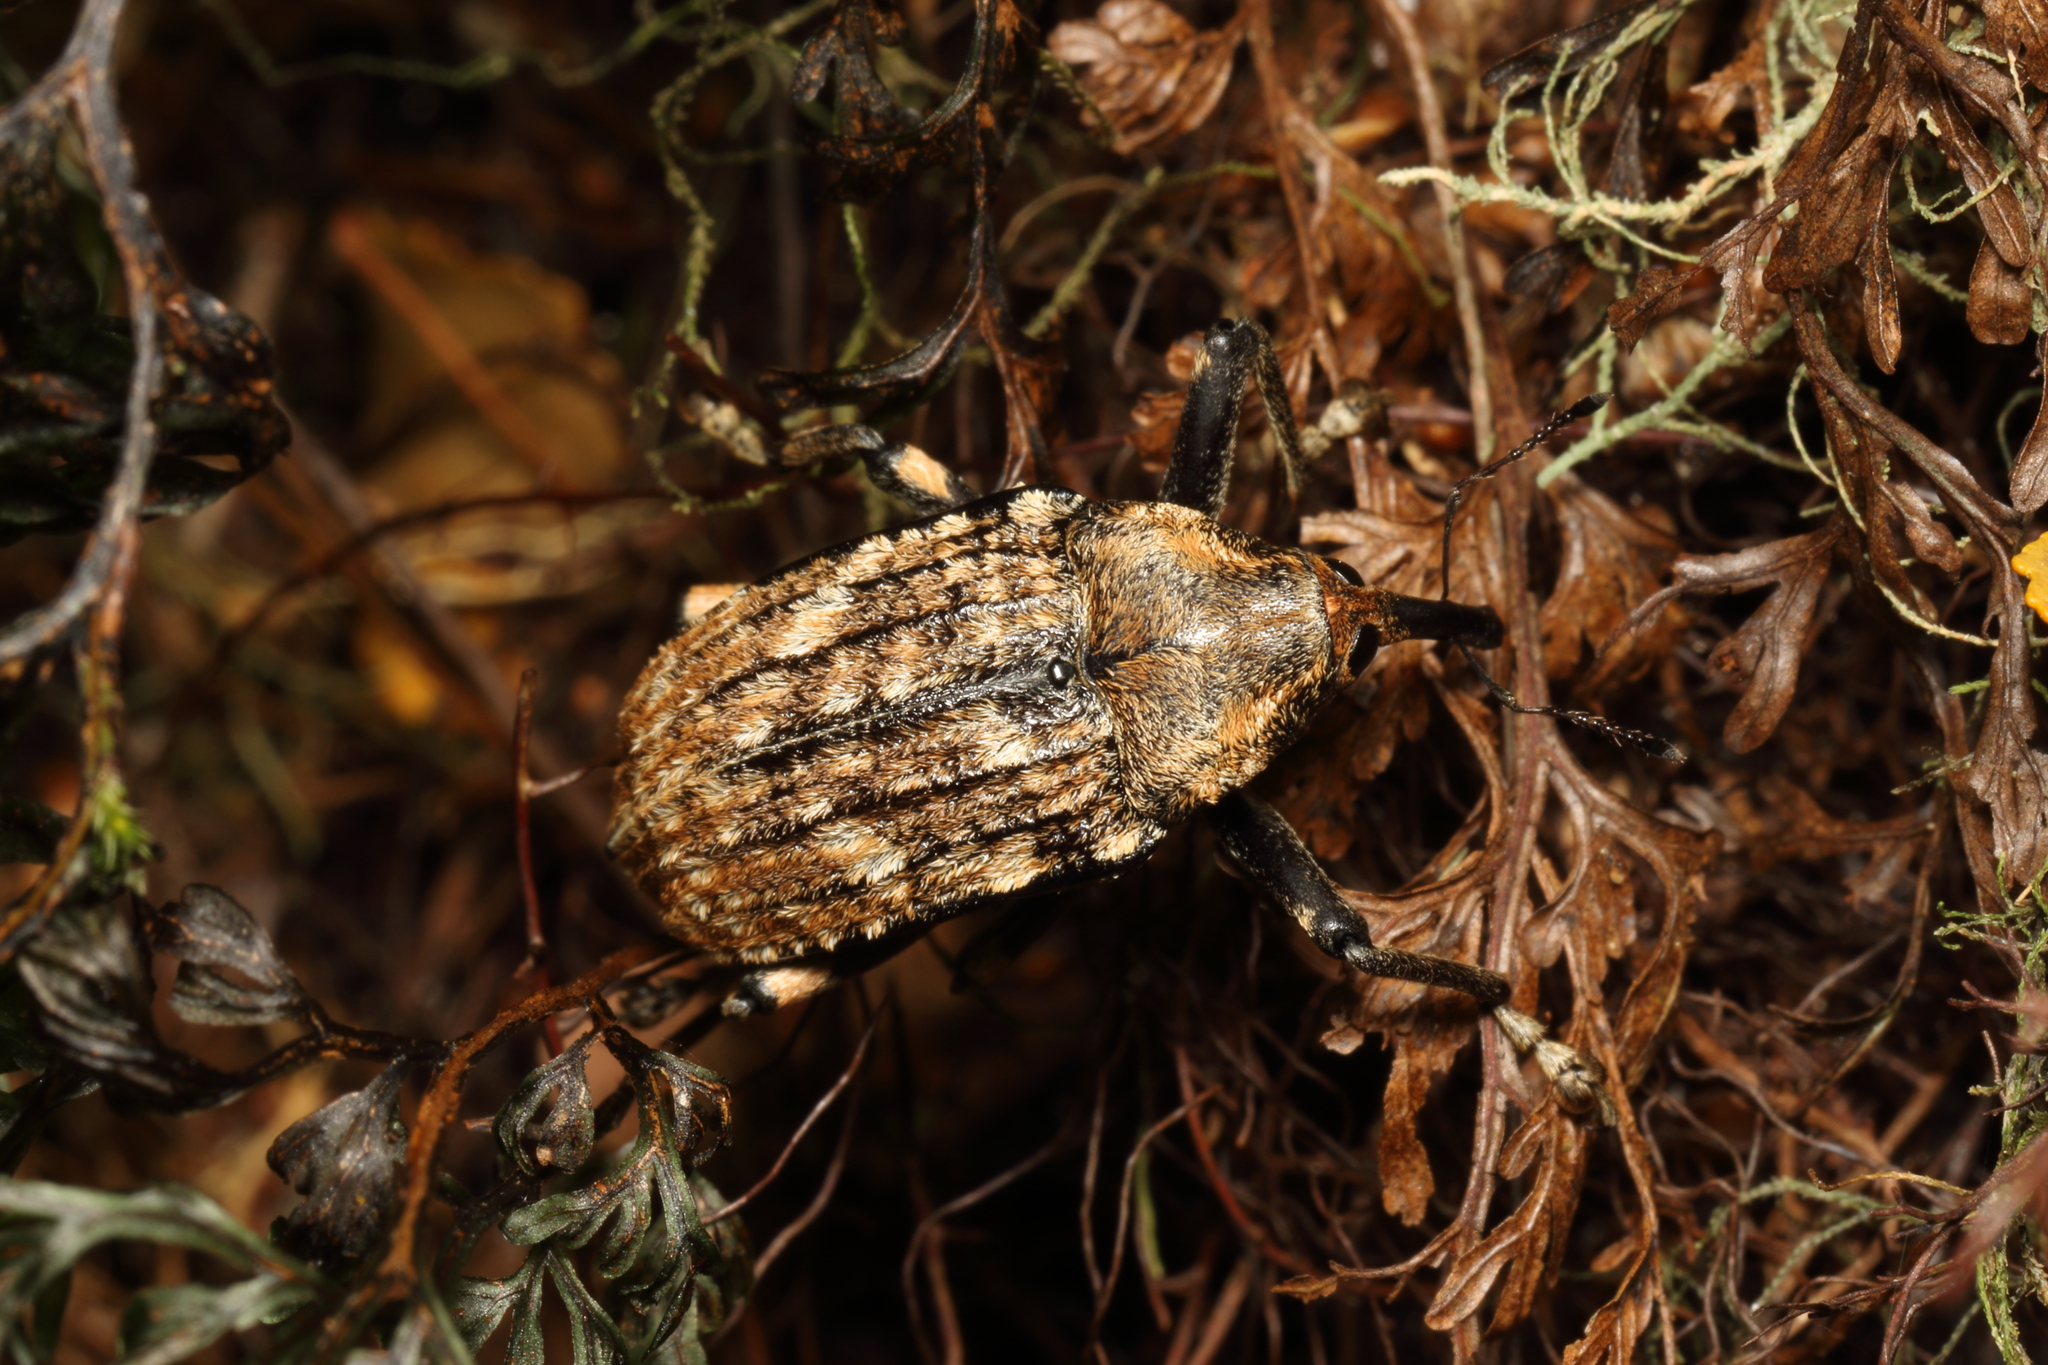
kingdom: Animalia
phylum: Arthropoda
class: Insecta
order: Coleoptera
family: Curculionidae
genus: Rhynchodes
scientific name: Rhynchodes ursus
